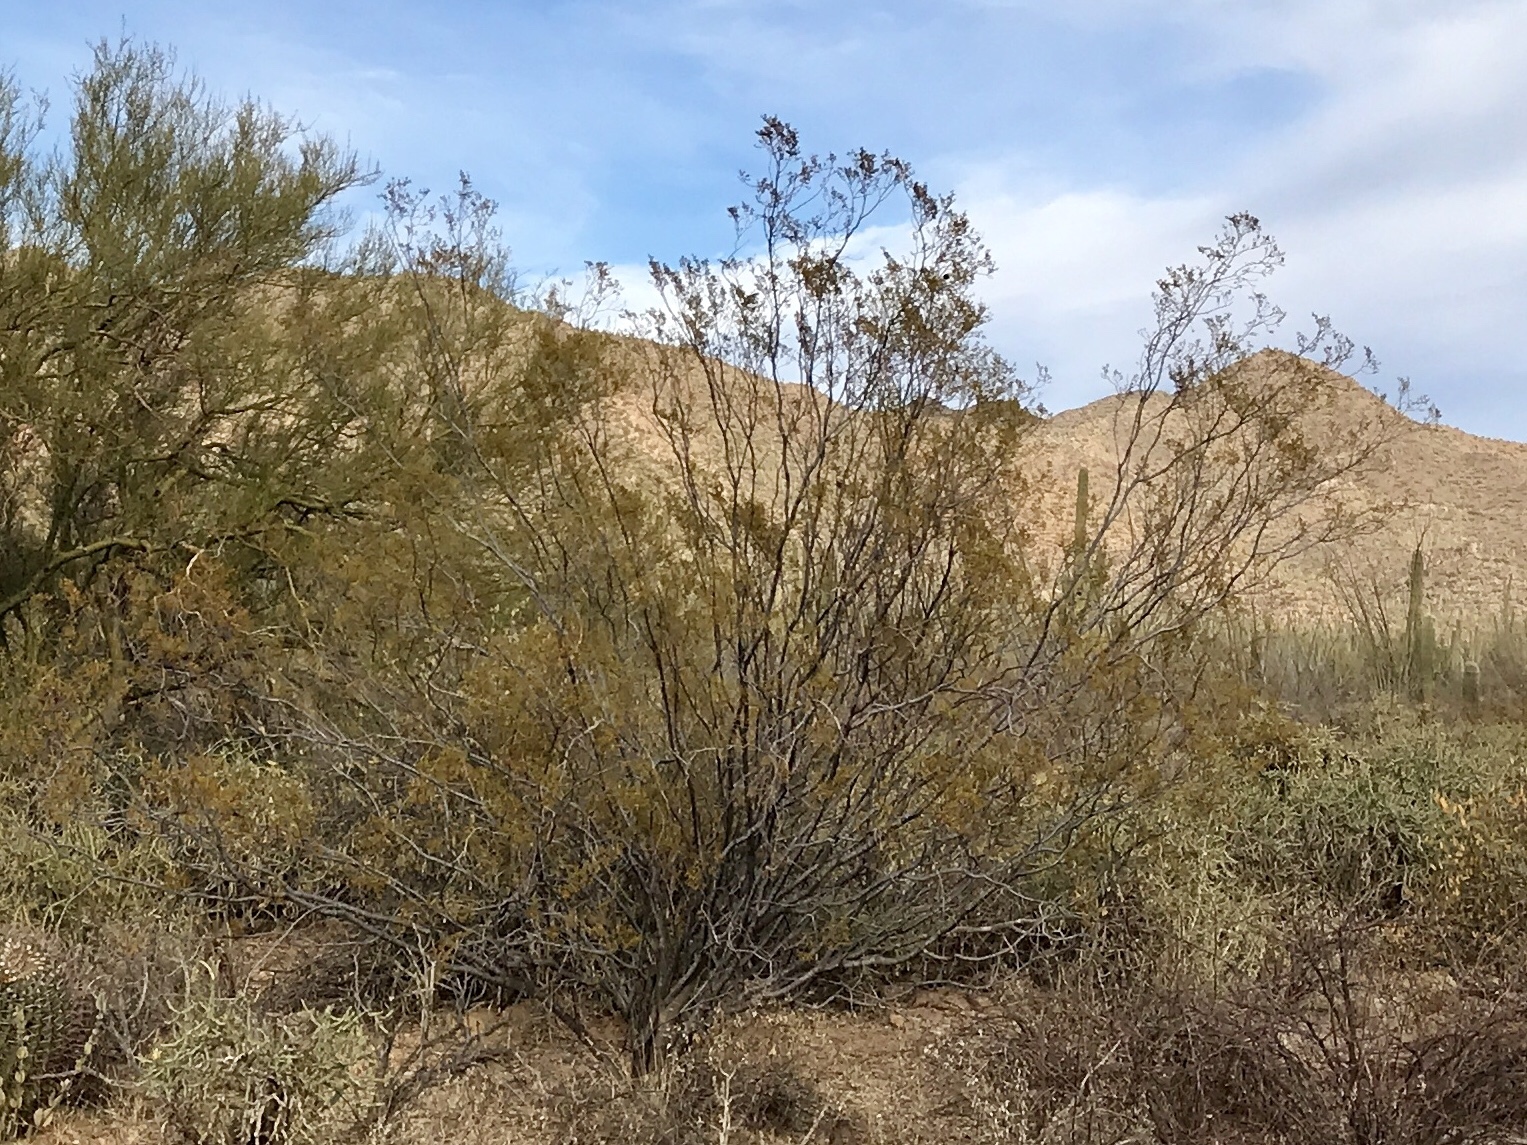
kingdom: Plantae
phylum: Tracheophyta
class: Magnoliopsida
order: Zygophyllales
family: Zygophyllaceae
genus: Larrea
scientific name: Larrea tridentata
